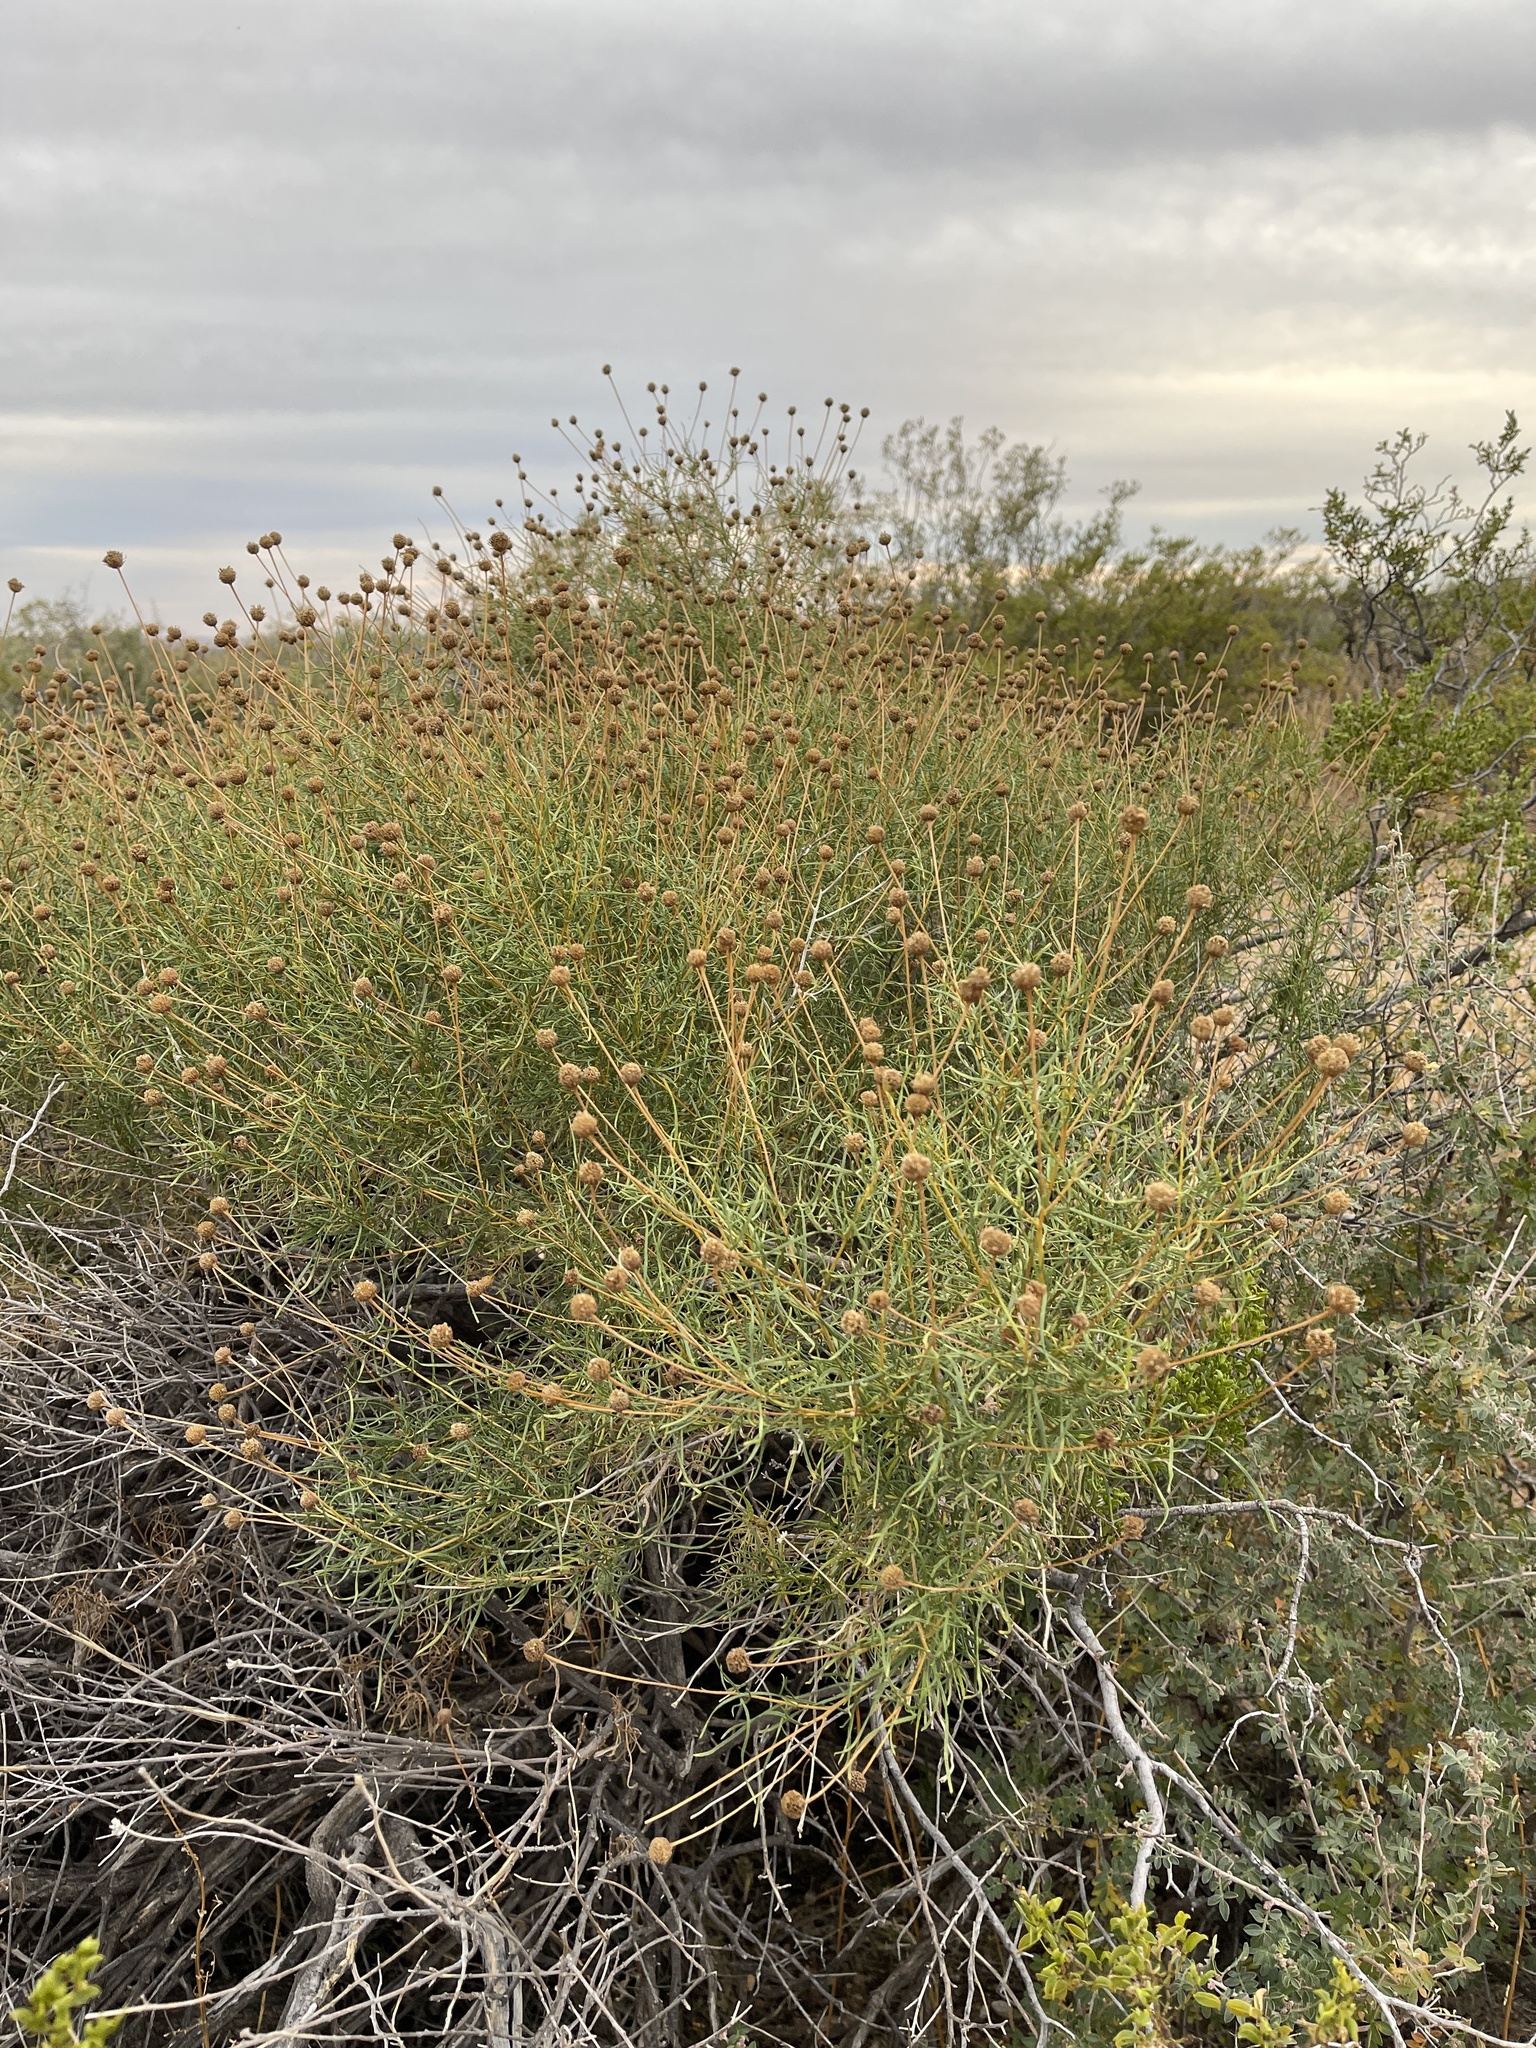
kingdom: Plantae
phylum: Tracheophyta
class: Magnoliopsida
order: Asterales
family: Asteraceae
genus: Sidneya
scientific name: Sidneya tenuifolia
